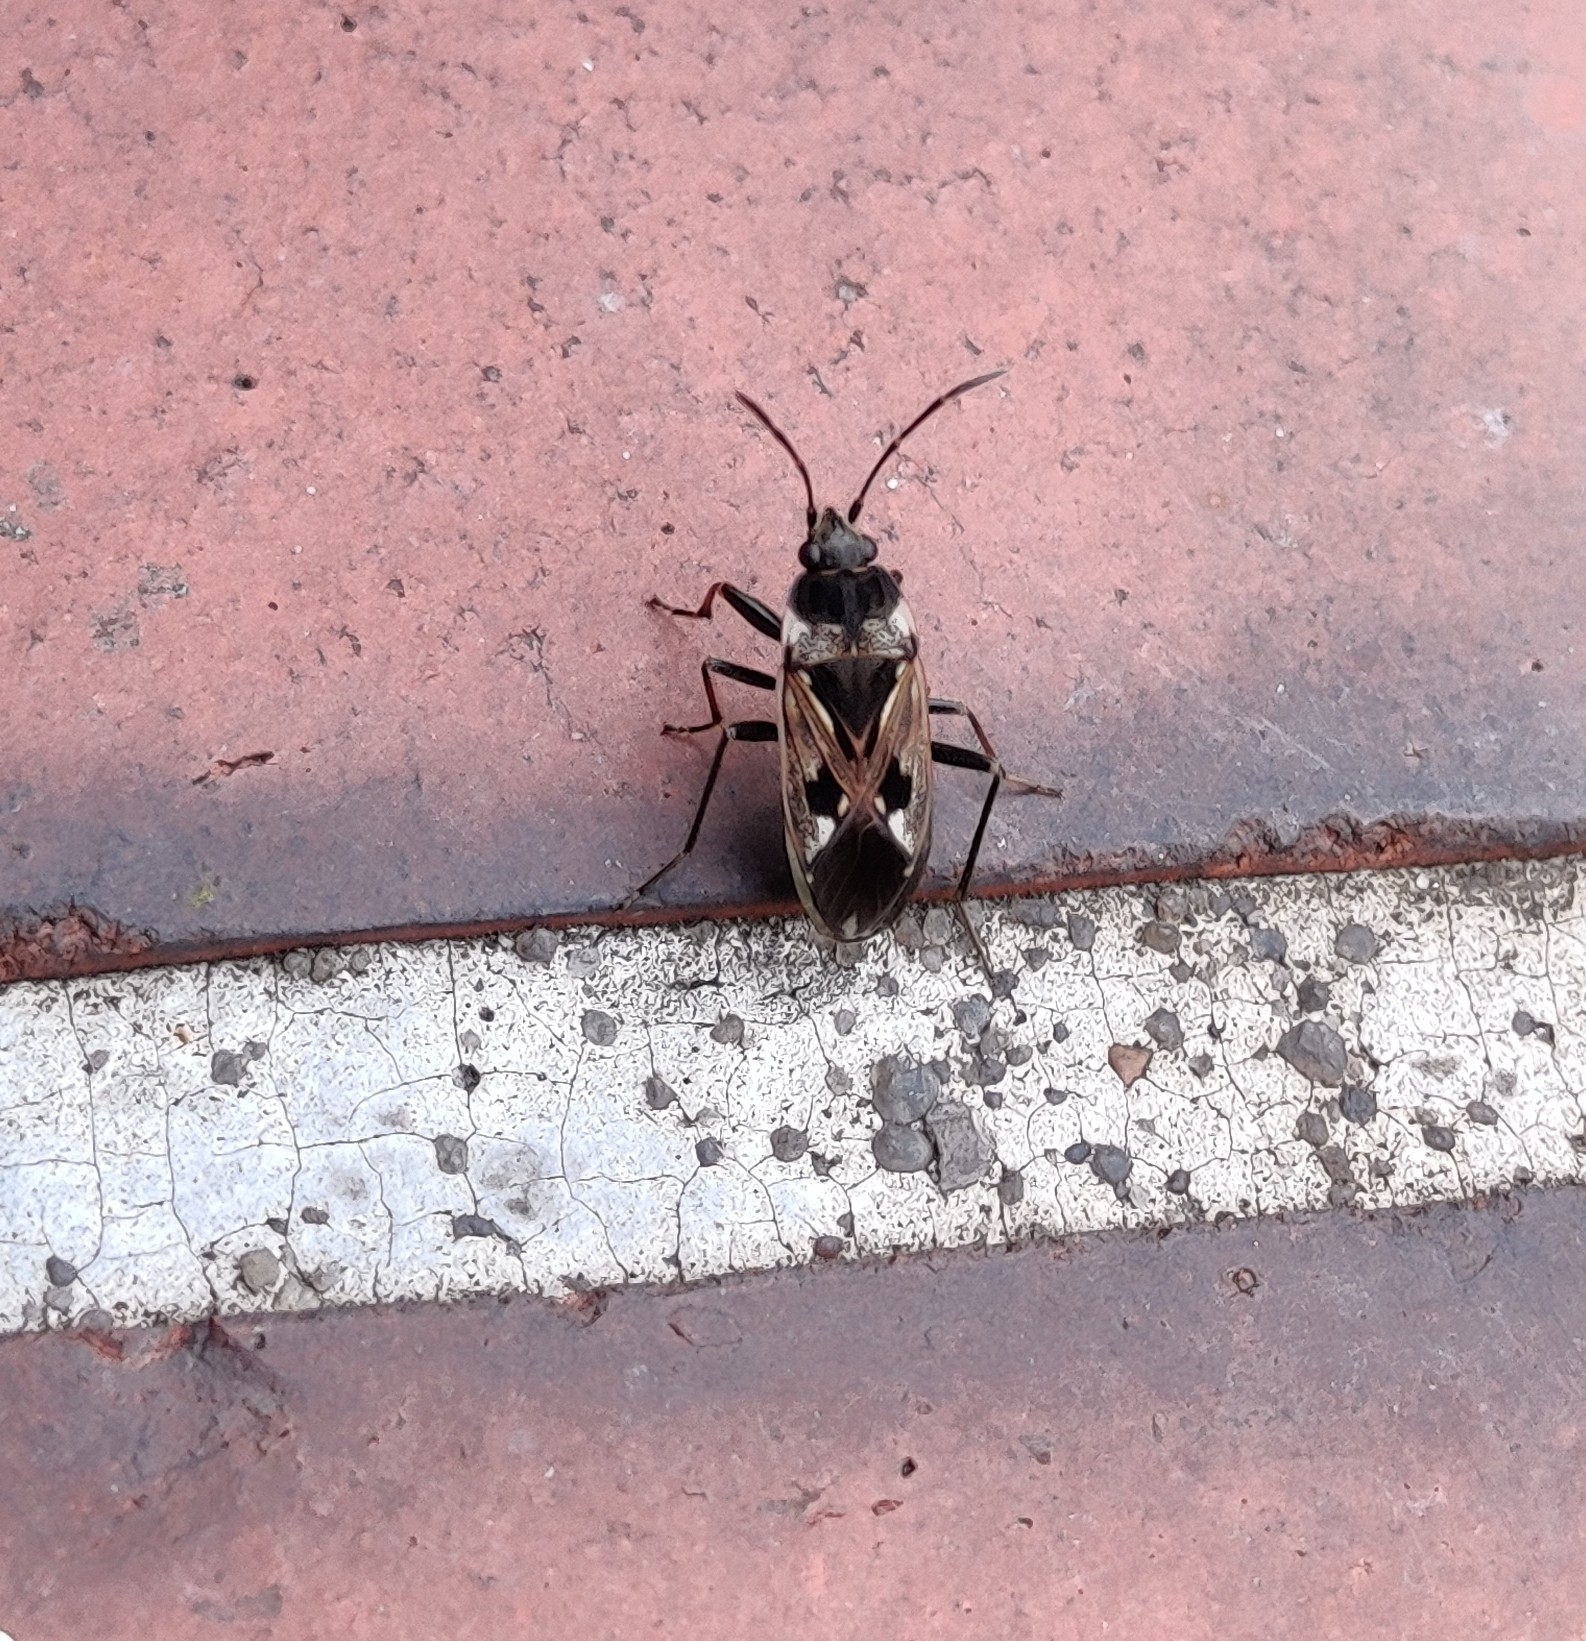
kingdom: Animalia
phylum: Arthropoda
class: Insecta
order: Hemiptera
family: Rhyparochromidae
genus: Rhyparochromus
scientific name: Rhyparochromus vulgaris
